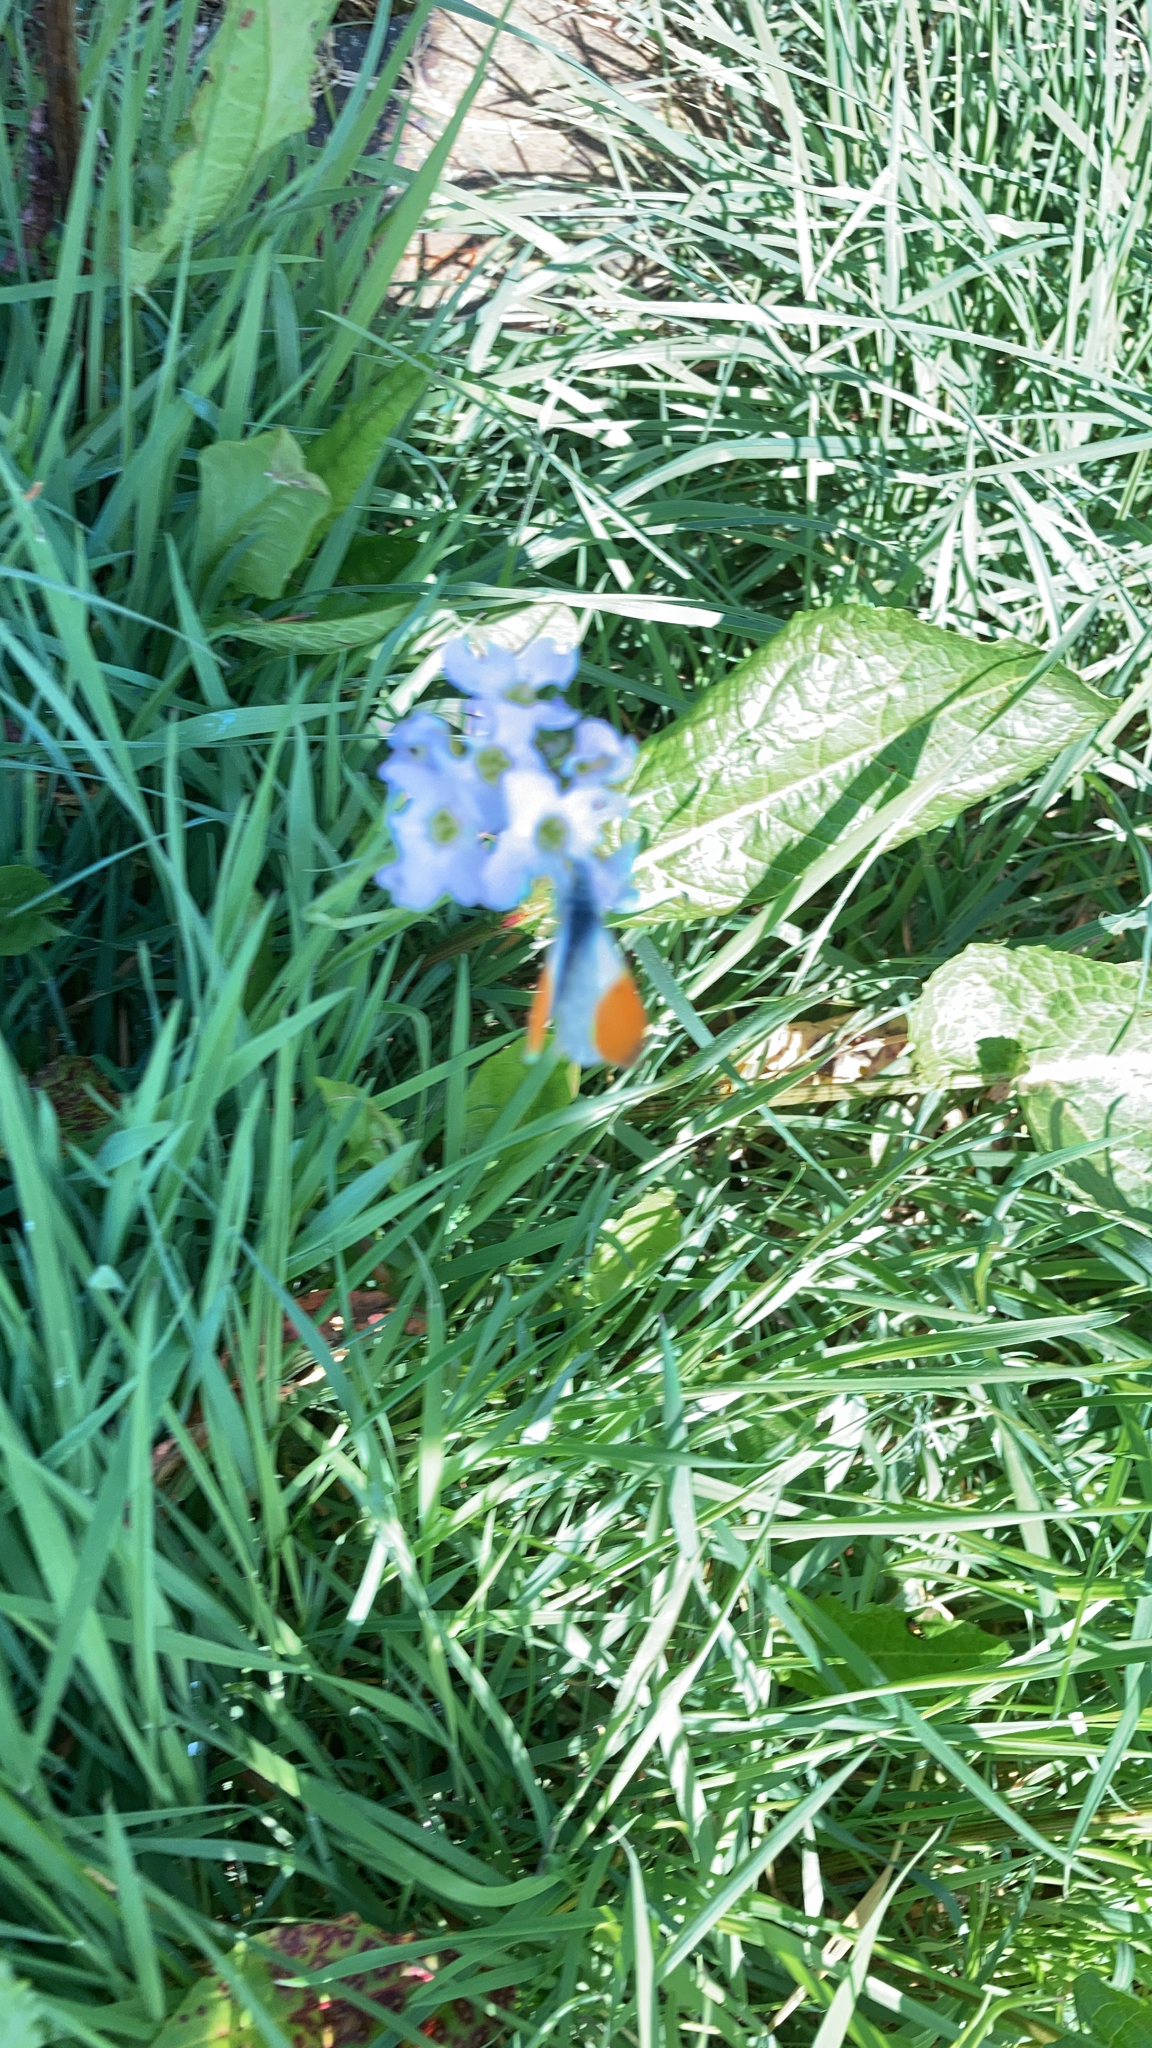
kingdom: Animalia
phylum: Arthropoda
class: Insecta
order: Lepidoptera
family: Pieridae
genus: Anthocharis
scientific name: Anthocharis cardamines
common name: Orange-tip
